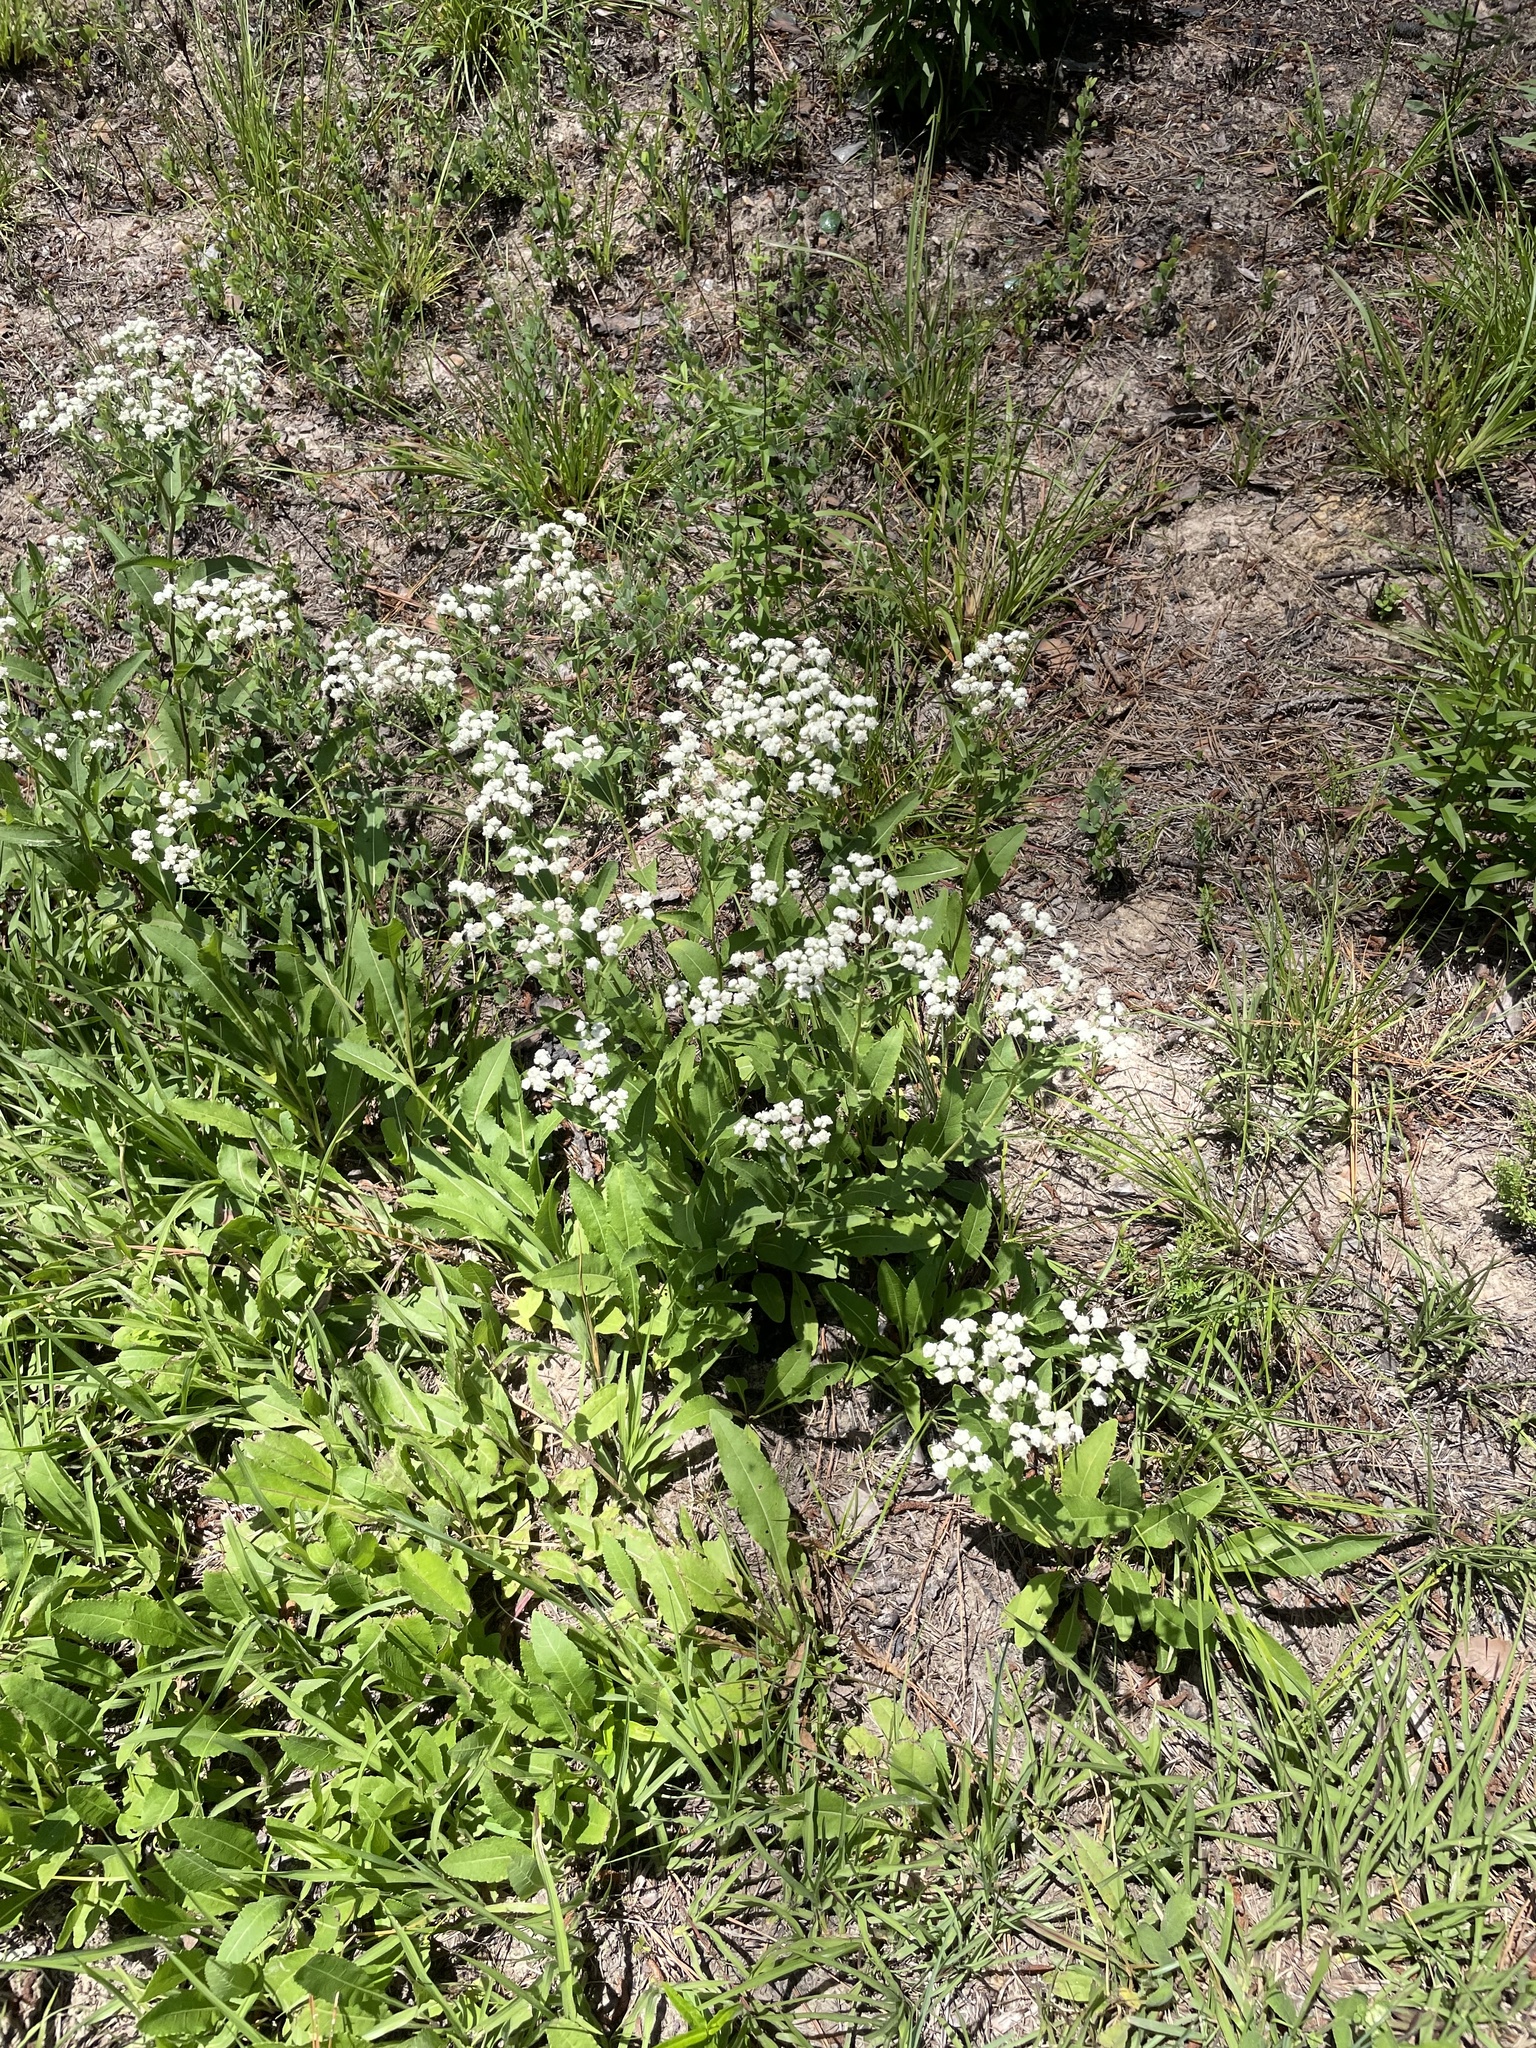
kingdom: Plantae
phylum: Tracheophyta
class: Magnoliopsida
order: Asterales
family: Asteraceae
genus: Parthenium
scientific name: Parthenium integrifolium
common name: American feverfew
